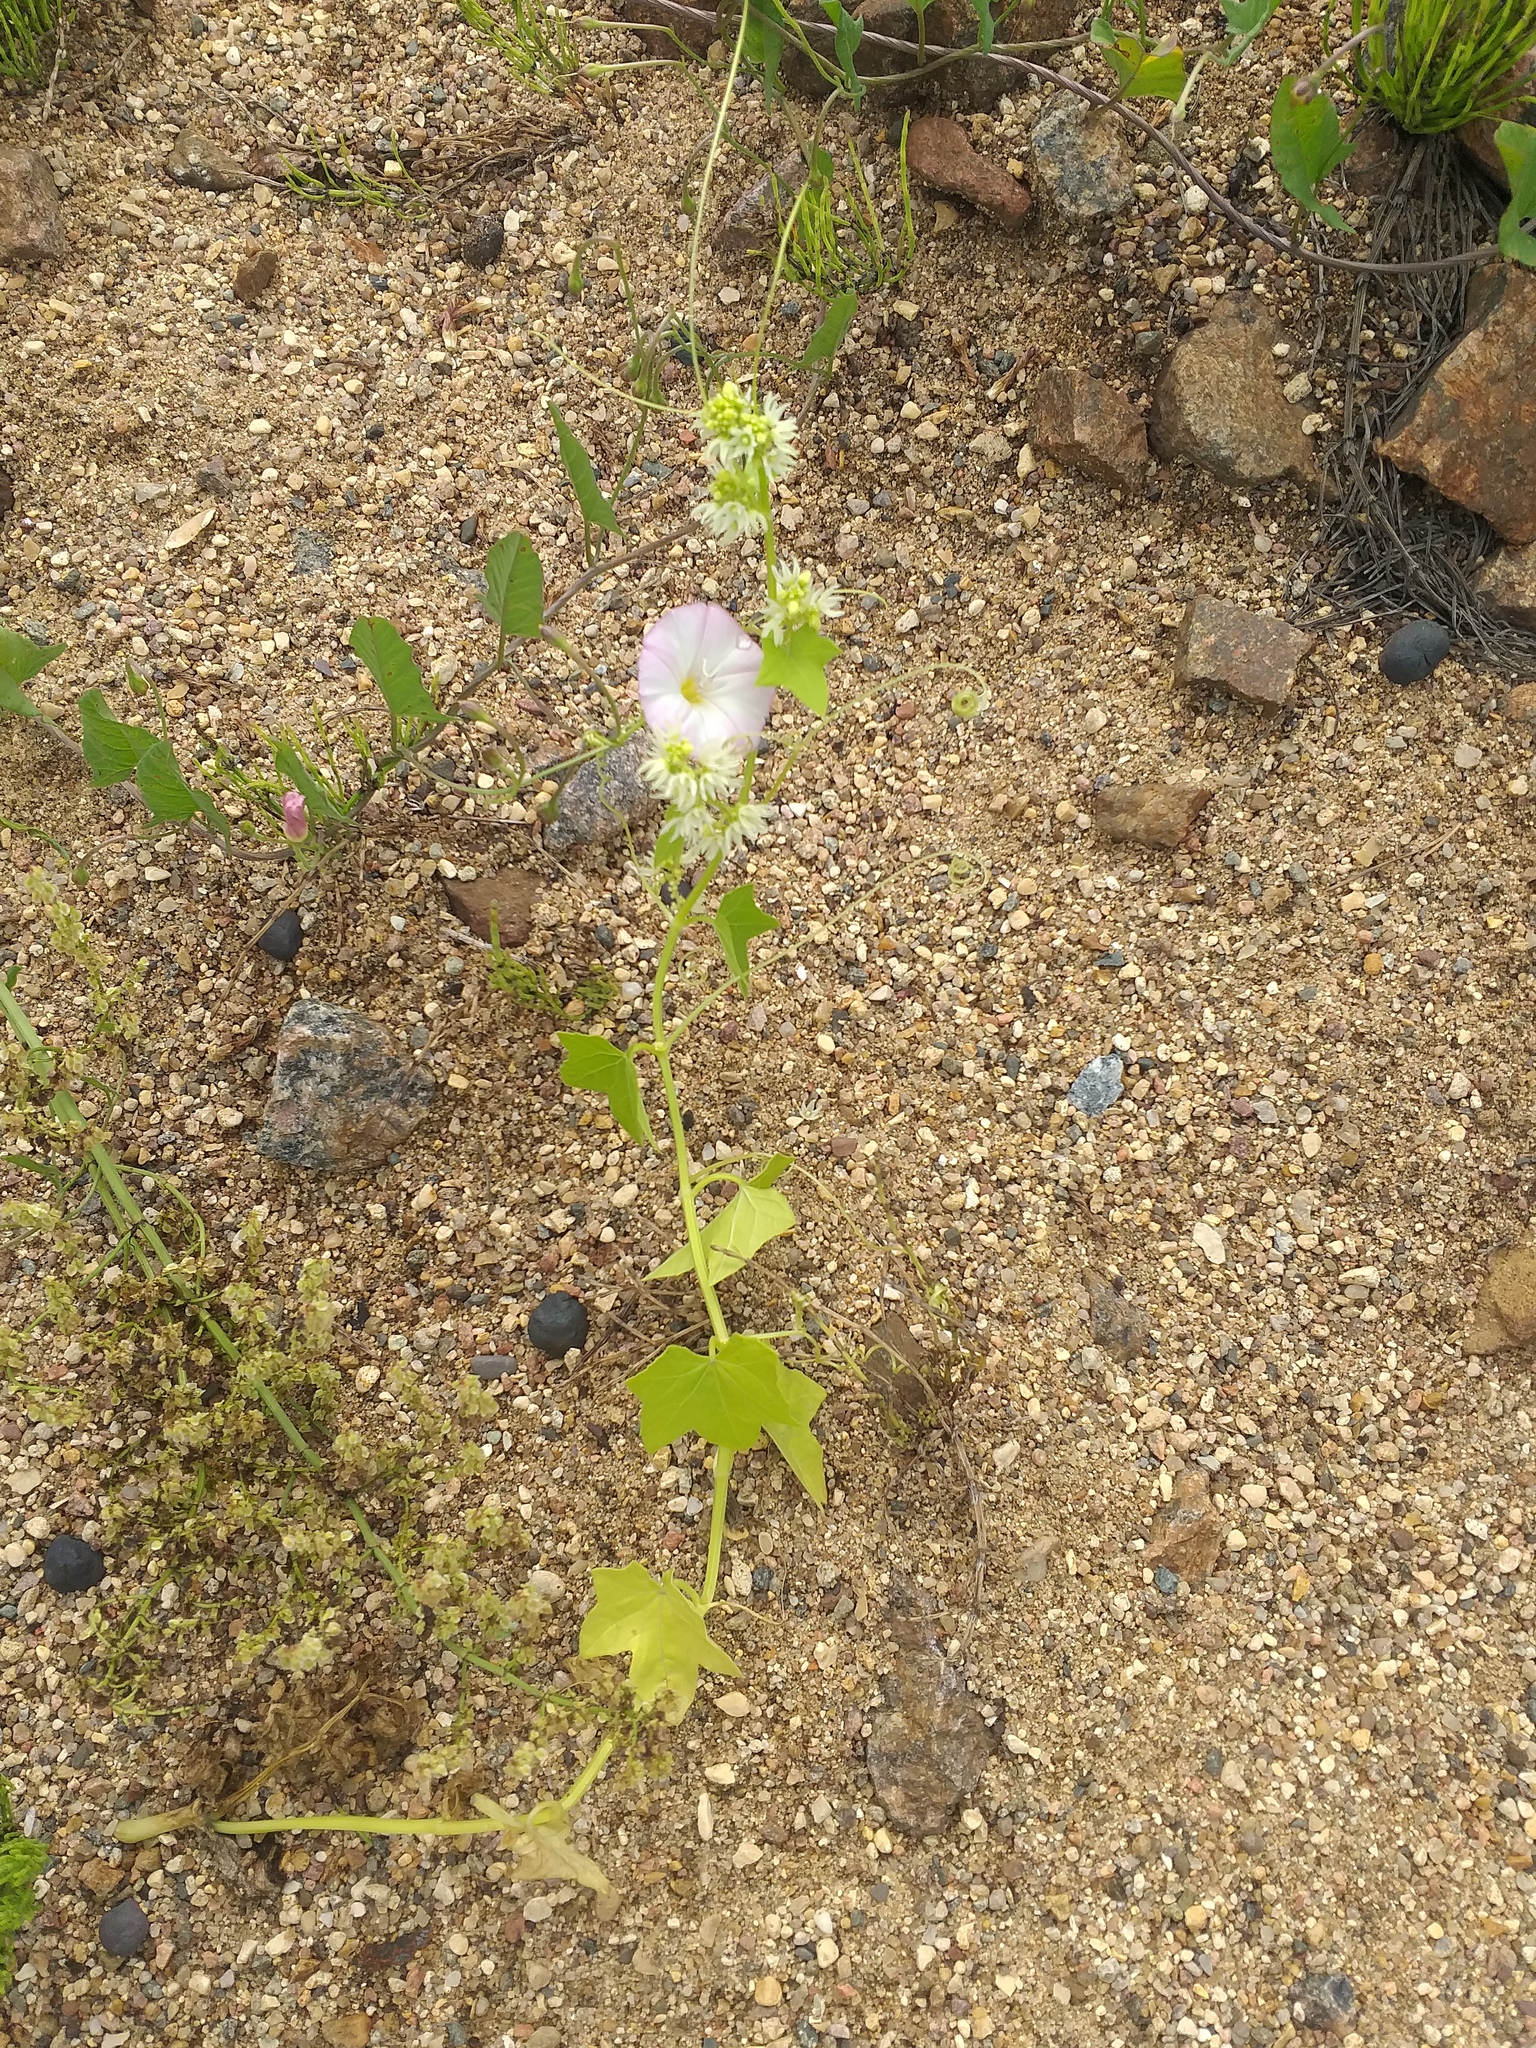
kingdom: Plantae
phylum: Tracheophyta
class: Magnoliopsida
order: Cucurbitales
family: Cucurbitaceae
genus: Echinocystis
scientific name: Echinocystis lobata
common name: Wild cucumber
